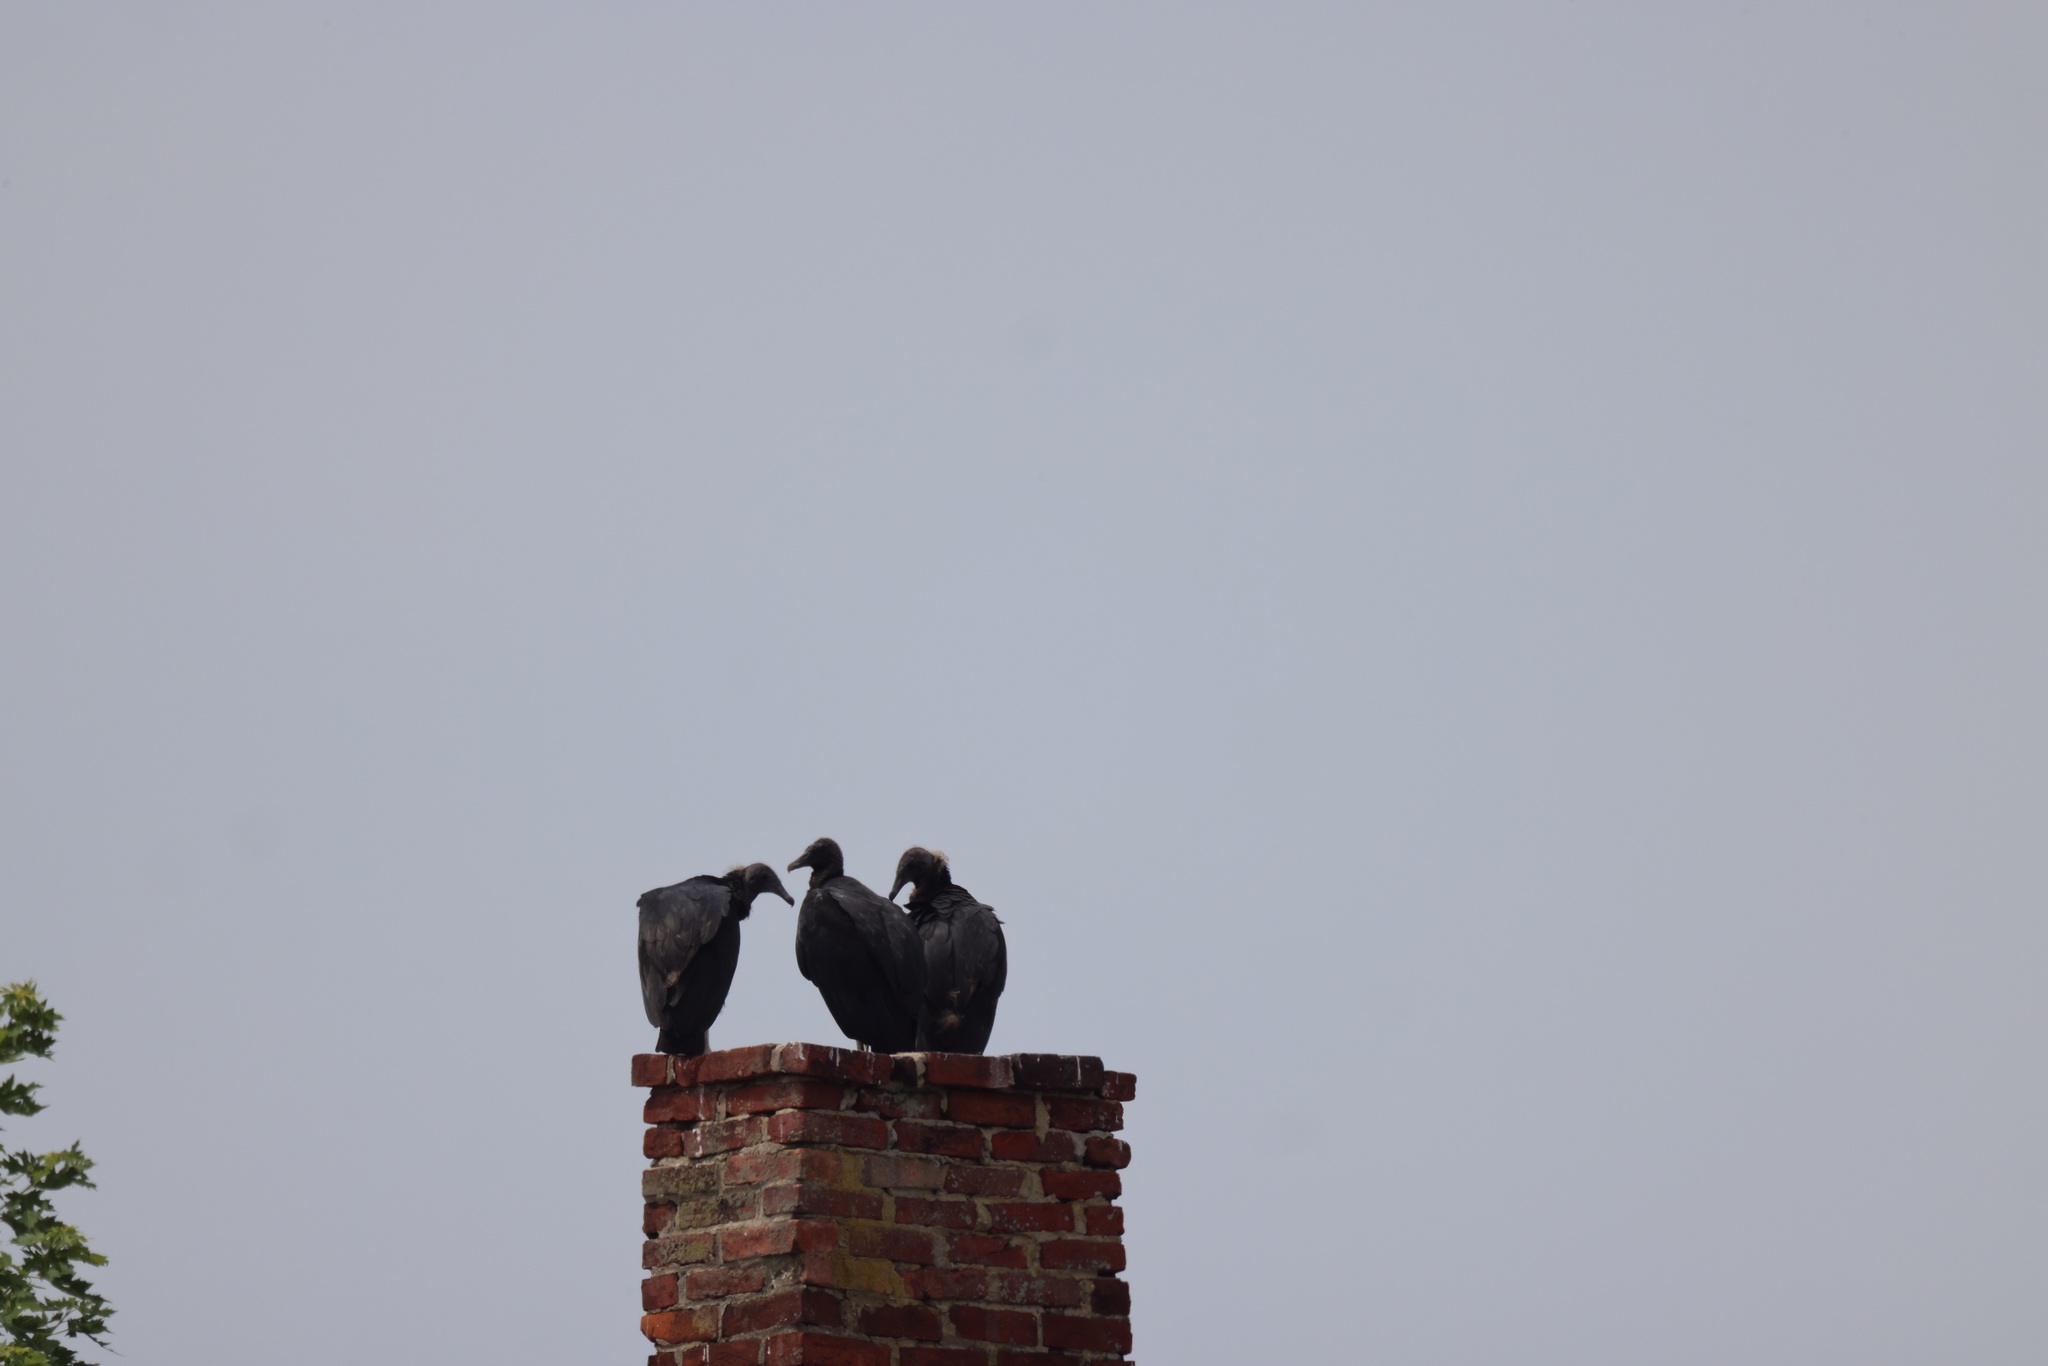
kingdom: Animalia
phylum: Chordata
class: Aves
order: Accipitriformes
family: Cathartidae
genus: Coragyps
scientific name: Coragyps atratus
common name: Black vulture
